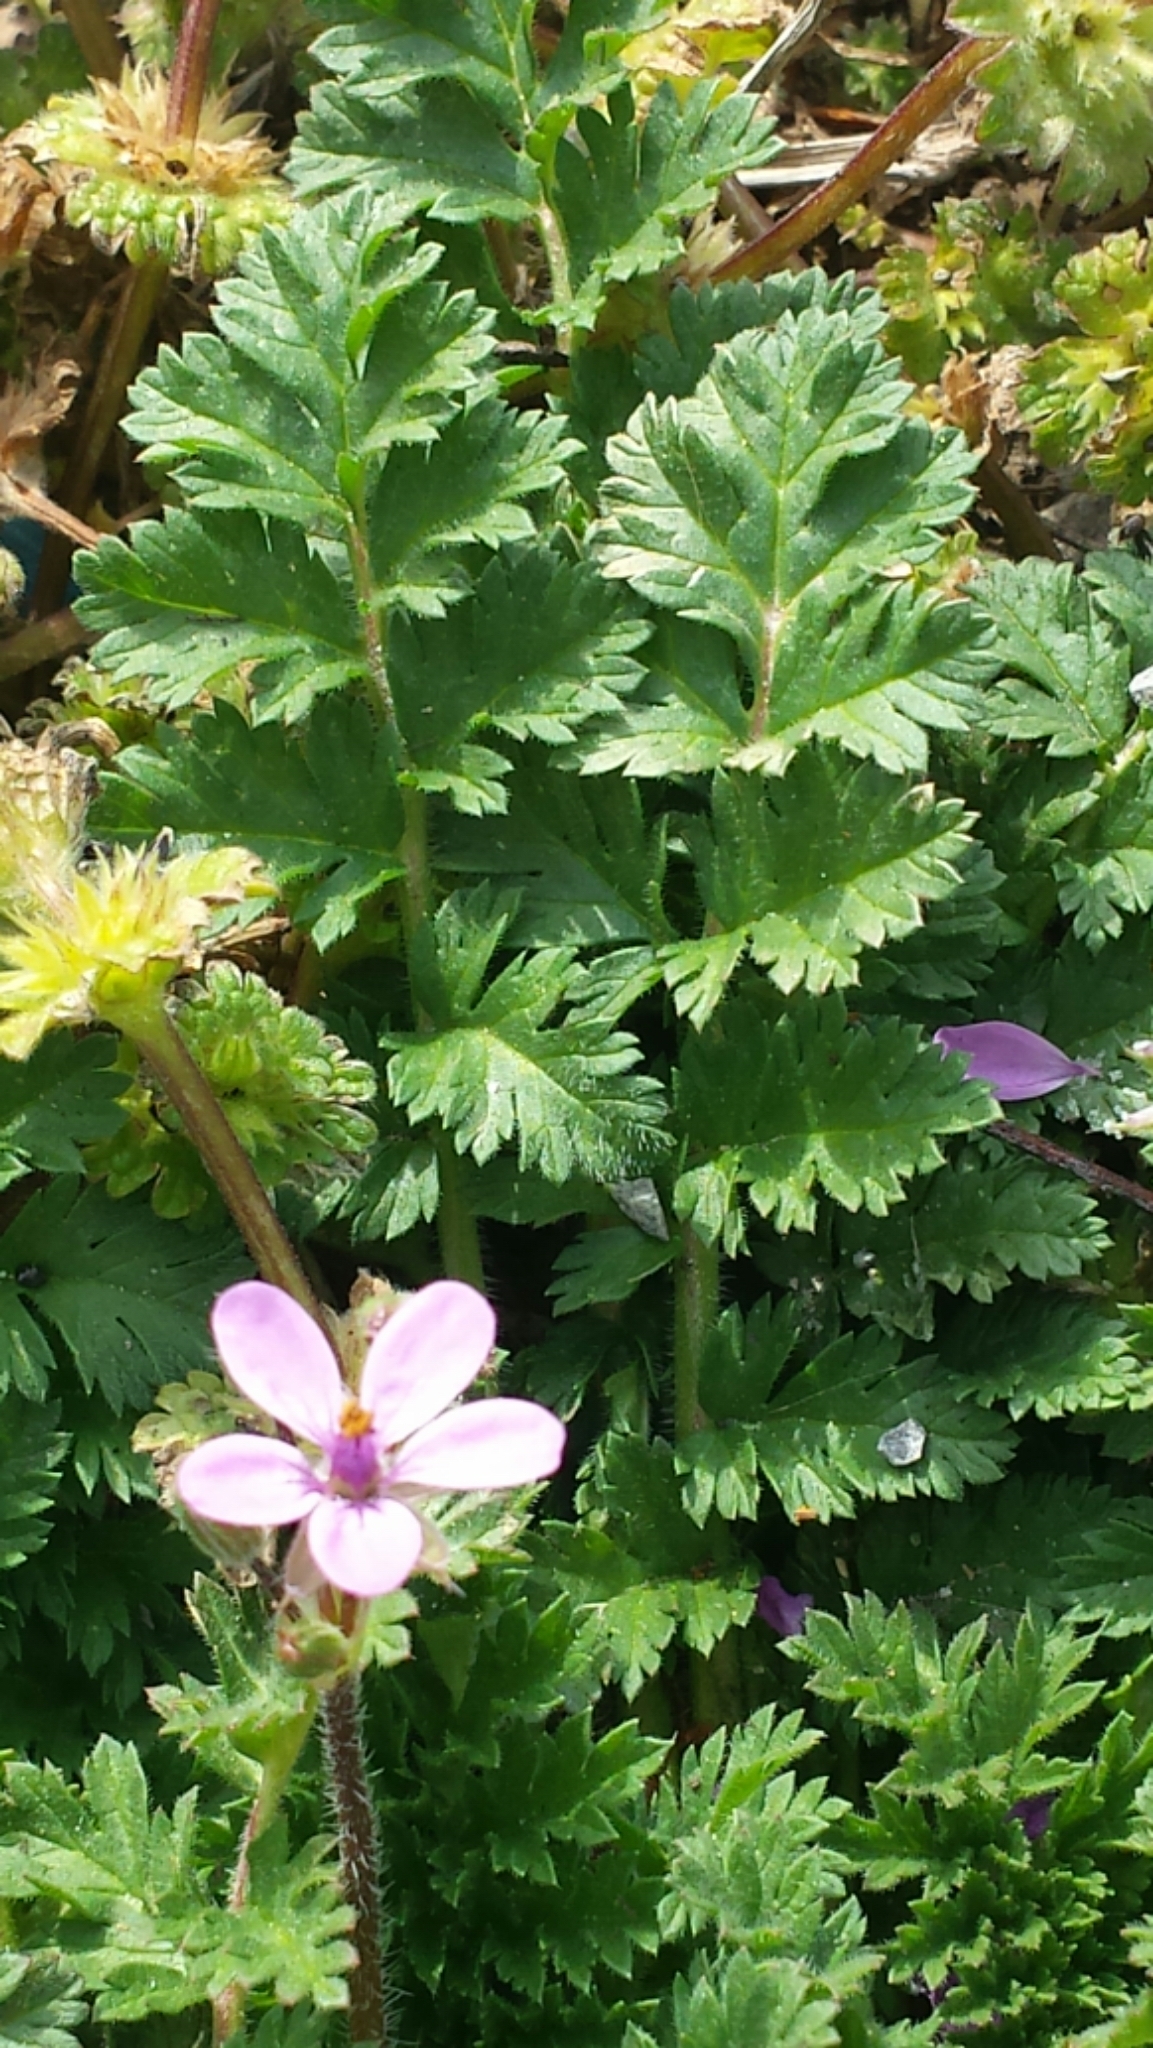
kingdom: Plantae
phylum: Tracheophyta
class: Magnoliopsida
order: Geraniales
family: Geraniaceae
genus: Erodium
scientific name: Erodium cicutarium
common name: Common stork's-bill
